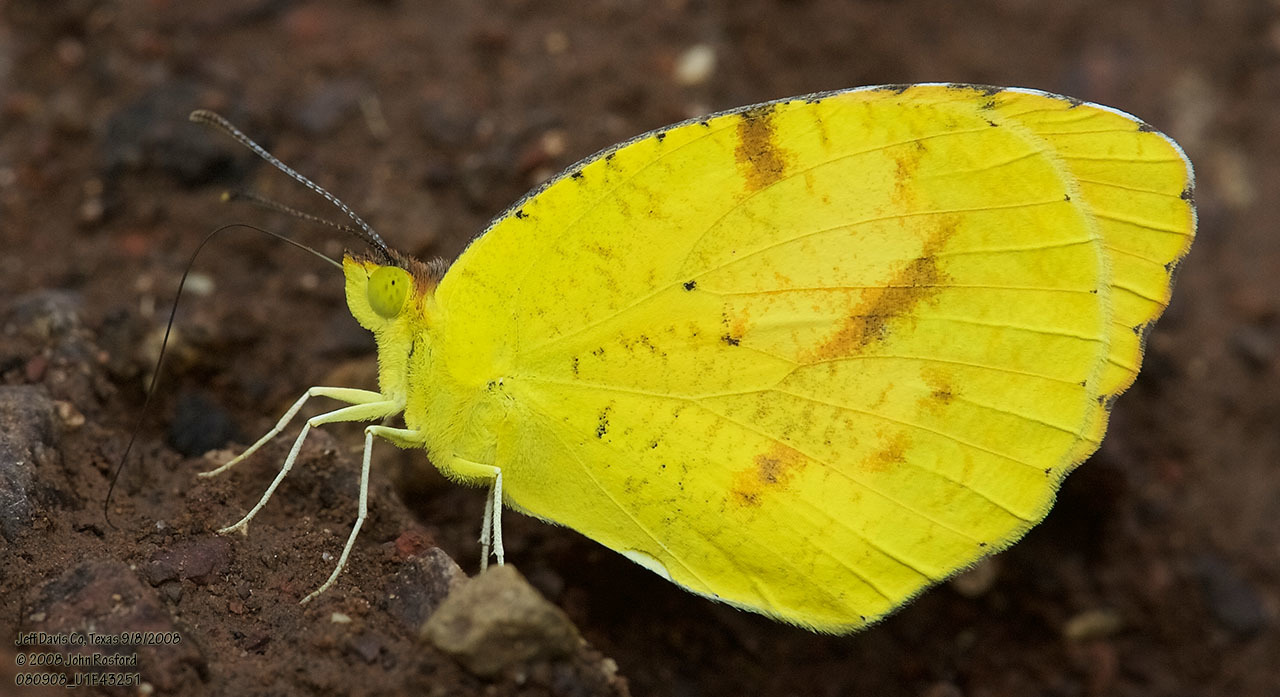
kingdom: Animalia
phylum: Arthropoda
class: Insecta
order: Lepidoptera
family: Pieridae
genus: Abaeis
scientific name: Abaeis nicippe
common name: Sleepy orange
